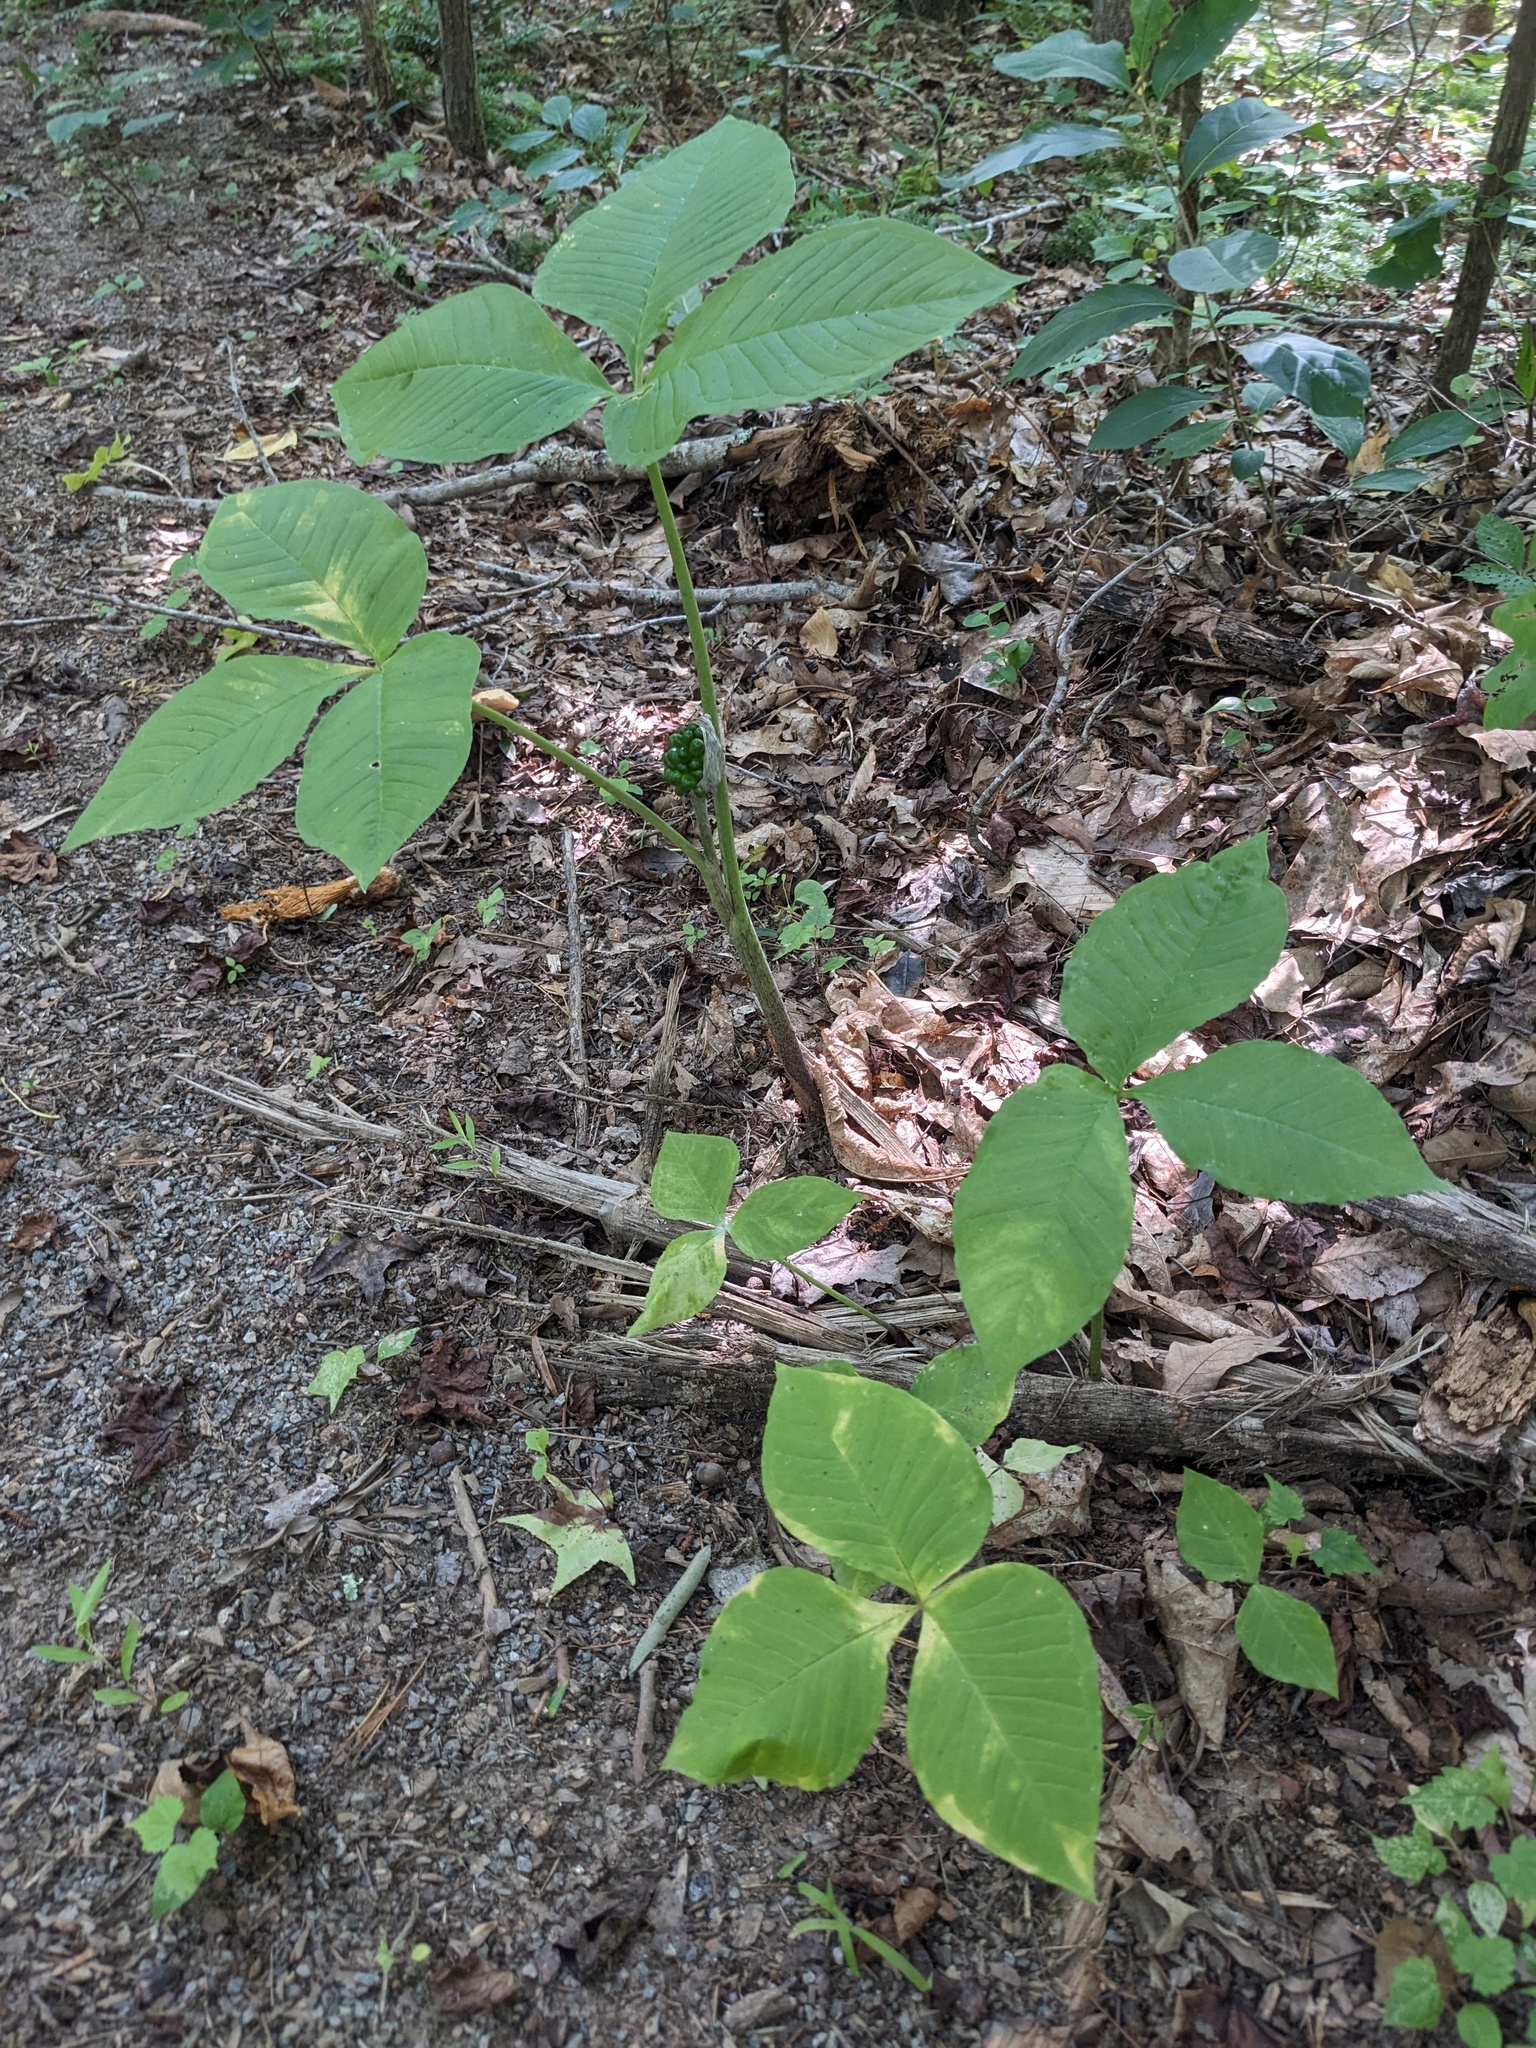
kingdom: Plantae
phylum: Tracheophyta
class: Liliopsida
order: Alismatales
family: Araceae
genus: Arisaema
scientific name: Arisaema triphyllum
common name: Jack-in-the-pulpit
